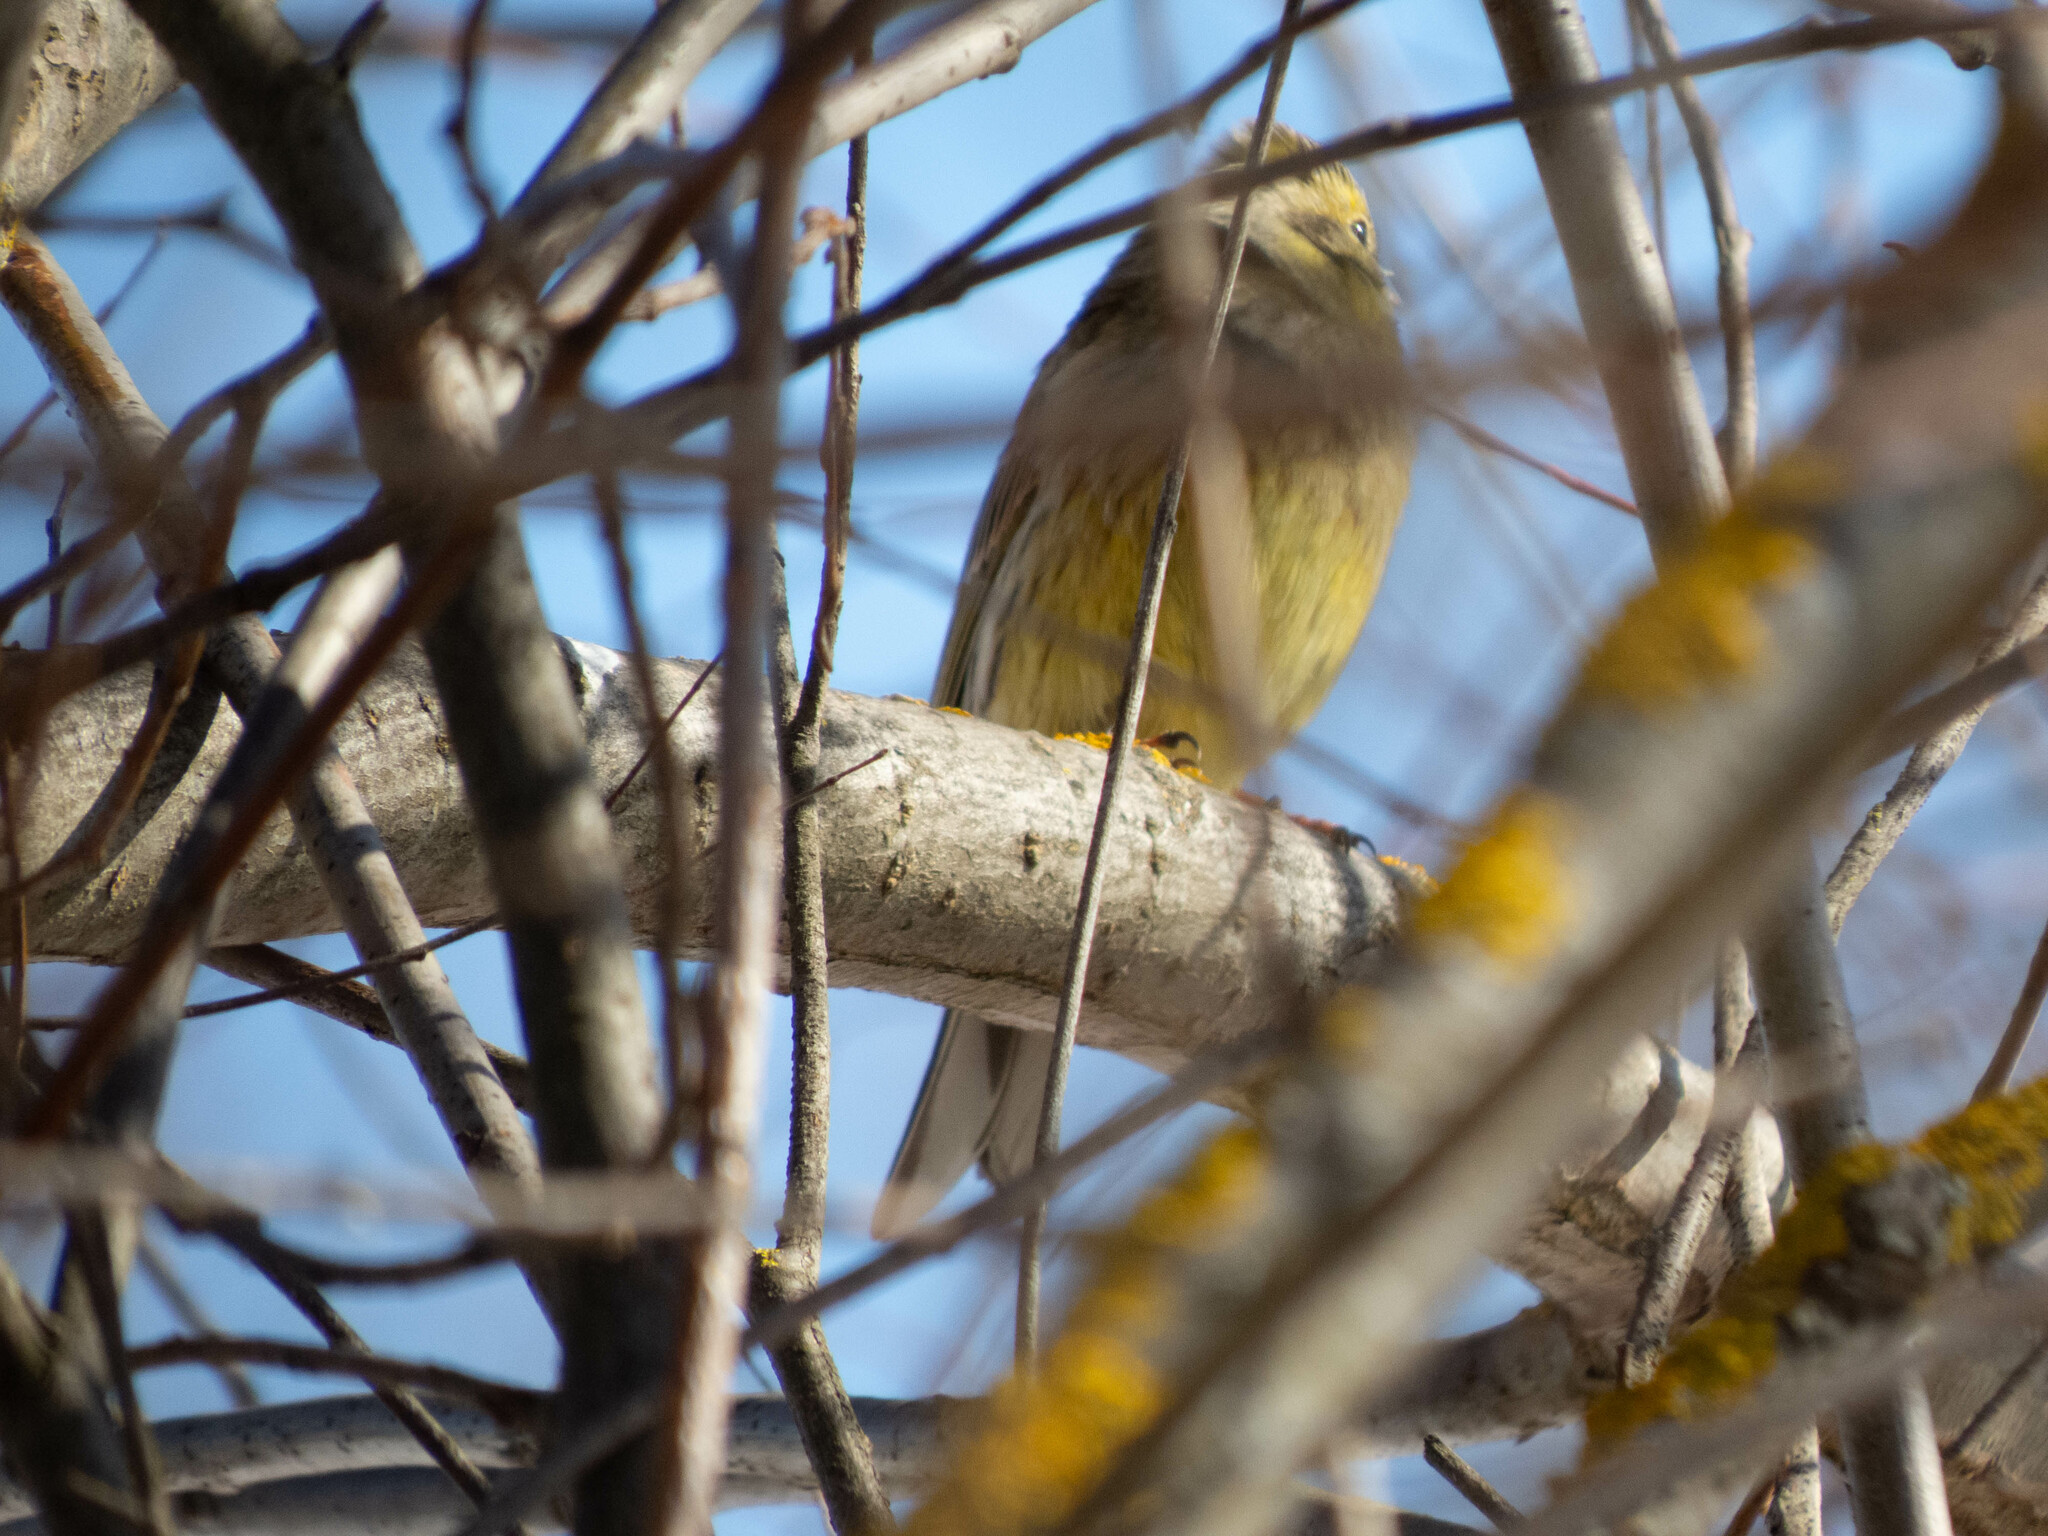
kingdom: Animalia
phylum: Chordata
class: Aves
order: Passeriformes
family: Emberizidae
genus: Emberiza
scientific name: Emberiza citrinella
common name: Yellowhammer
